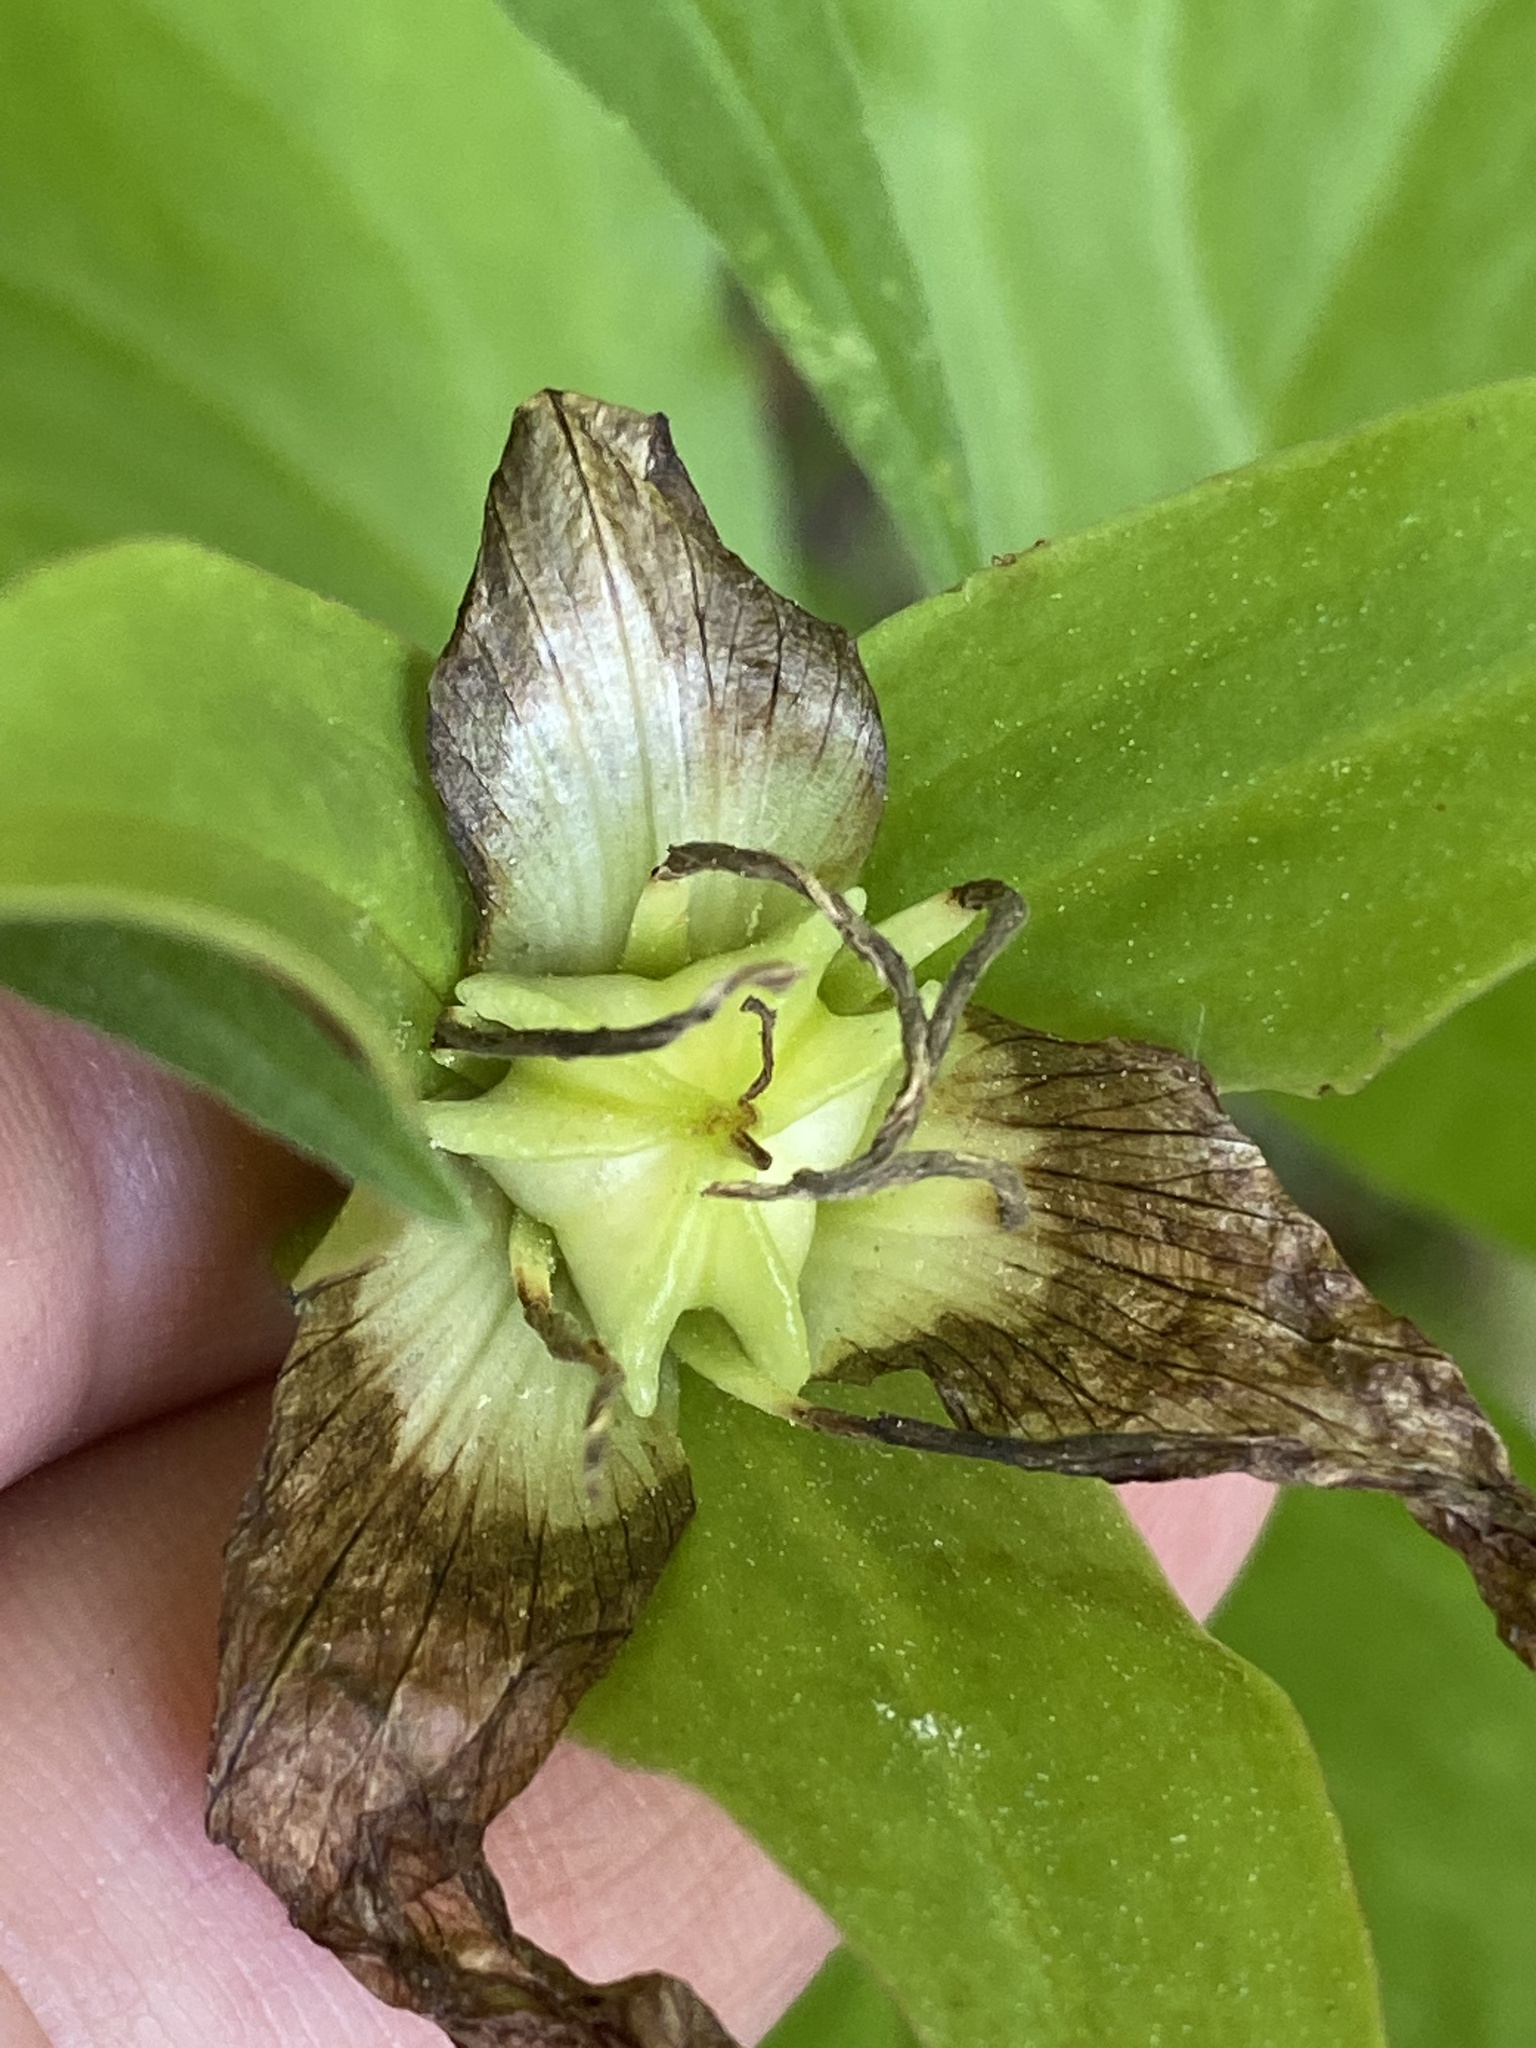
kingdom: Plantae
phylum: Tracheophyta
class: Liliopsida
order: Liliales
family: Melanthiaceae
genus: Trillium
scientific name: Trillium grandiflorum
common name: Great white trillium
